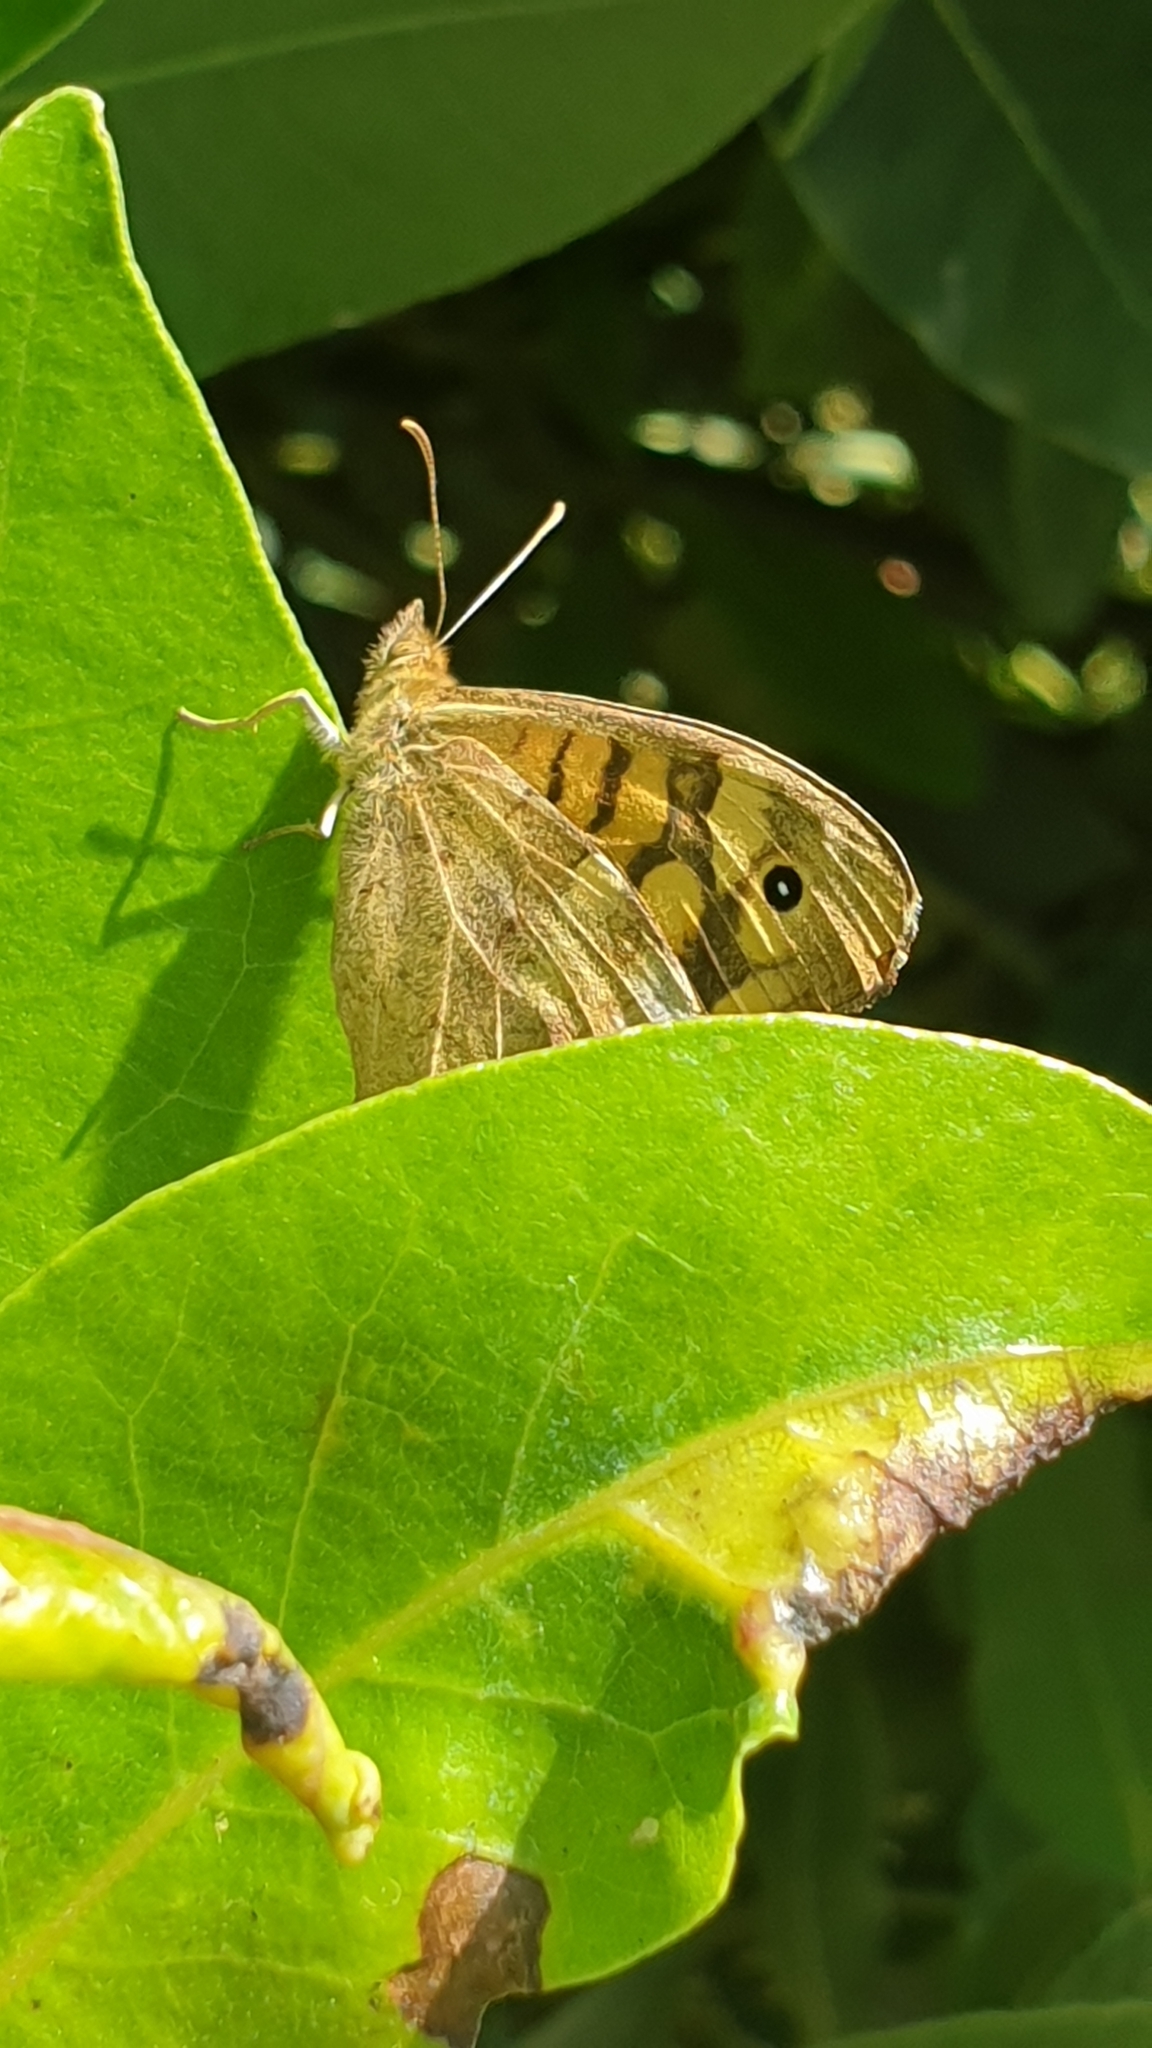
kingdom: Animalia
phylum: Arthropoda
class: Insecta
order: Lepidoptera
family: Nymphalidae
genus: Pararge
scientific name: Pararge aegeria
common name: Speckled wood
